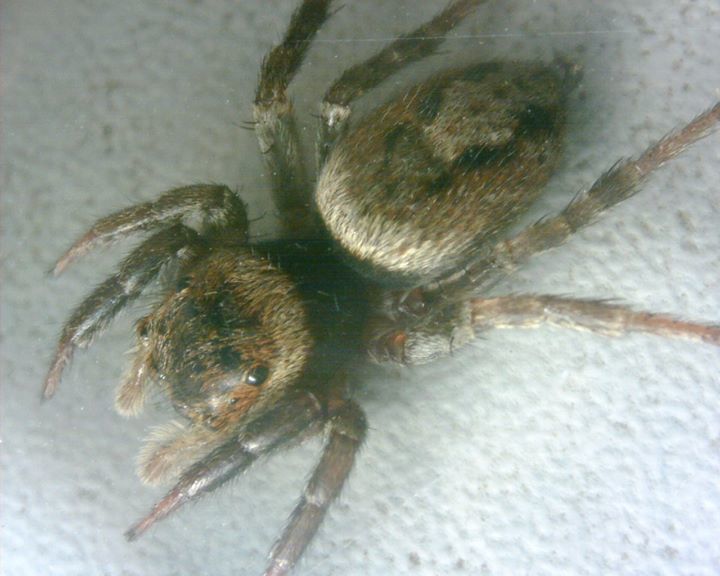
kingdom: Animalia
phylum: Arthropoda
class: Arachnida
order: Araneae
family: Salticidae
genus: Hasarius
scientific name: Hasarius adansoni
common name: Jumping spider
